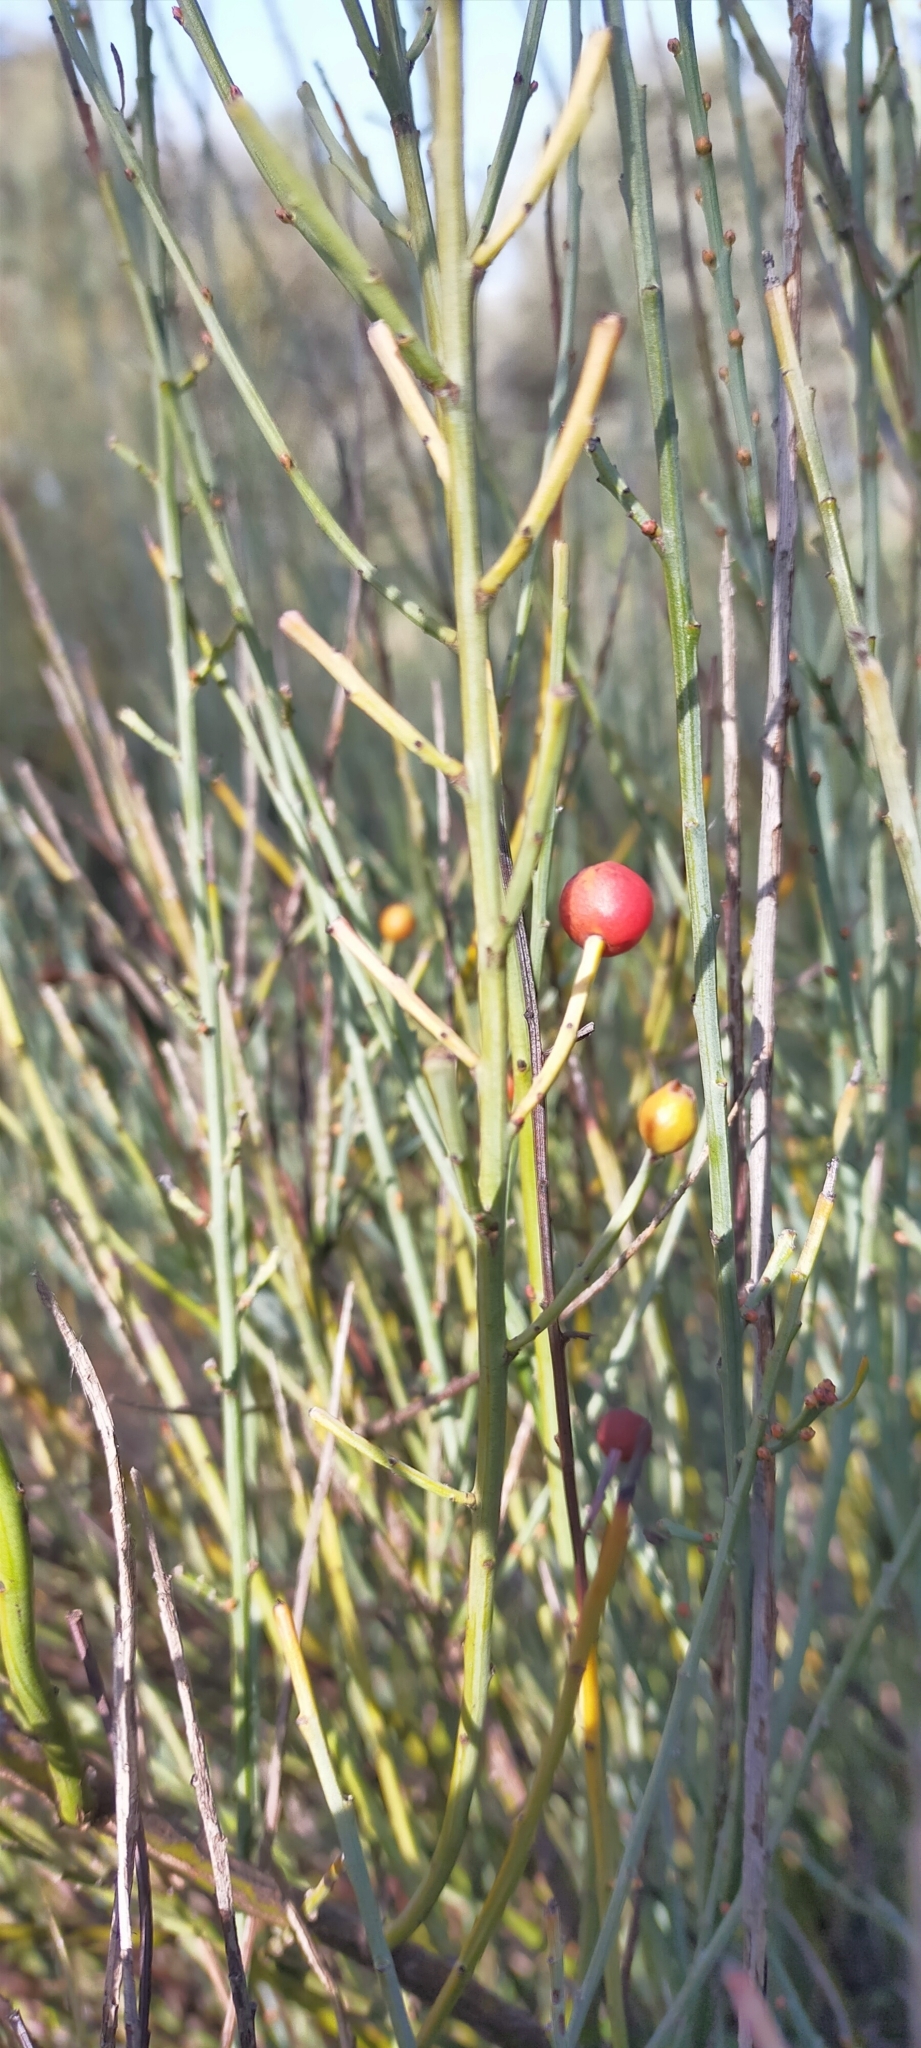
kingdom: Plantae
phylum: Tracheophyta
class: Magnoliopsida
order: Santalales
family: Santalaceae
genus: Osyris
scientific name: Osyris alba
